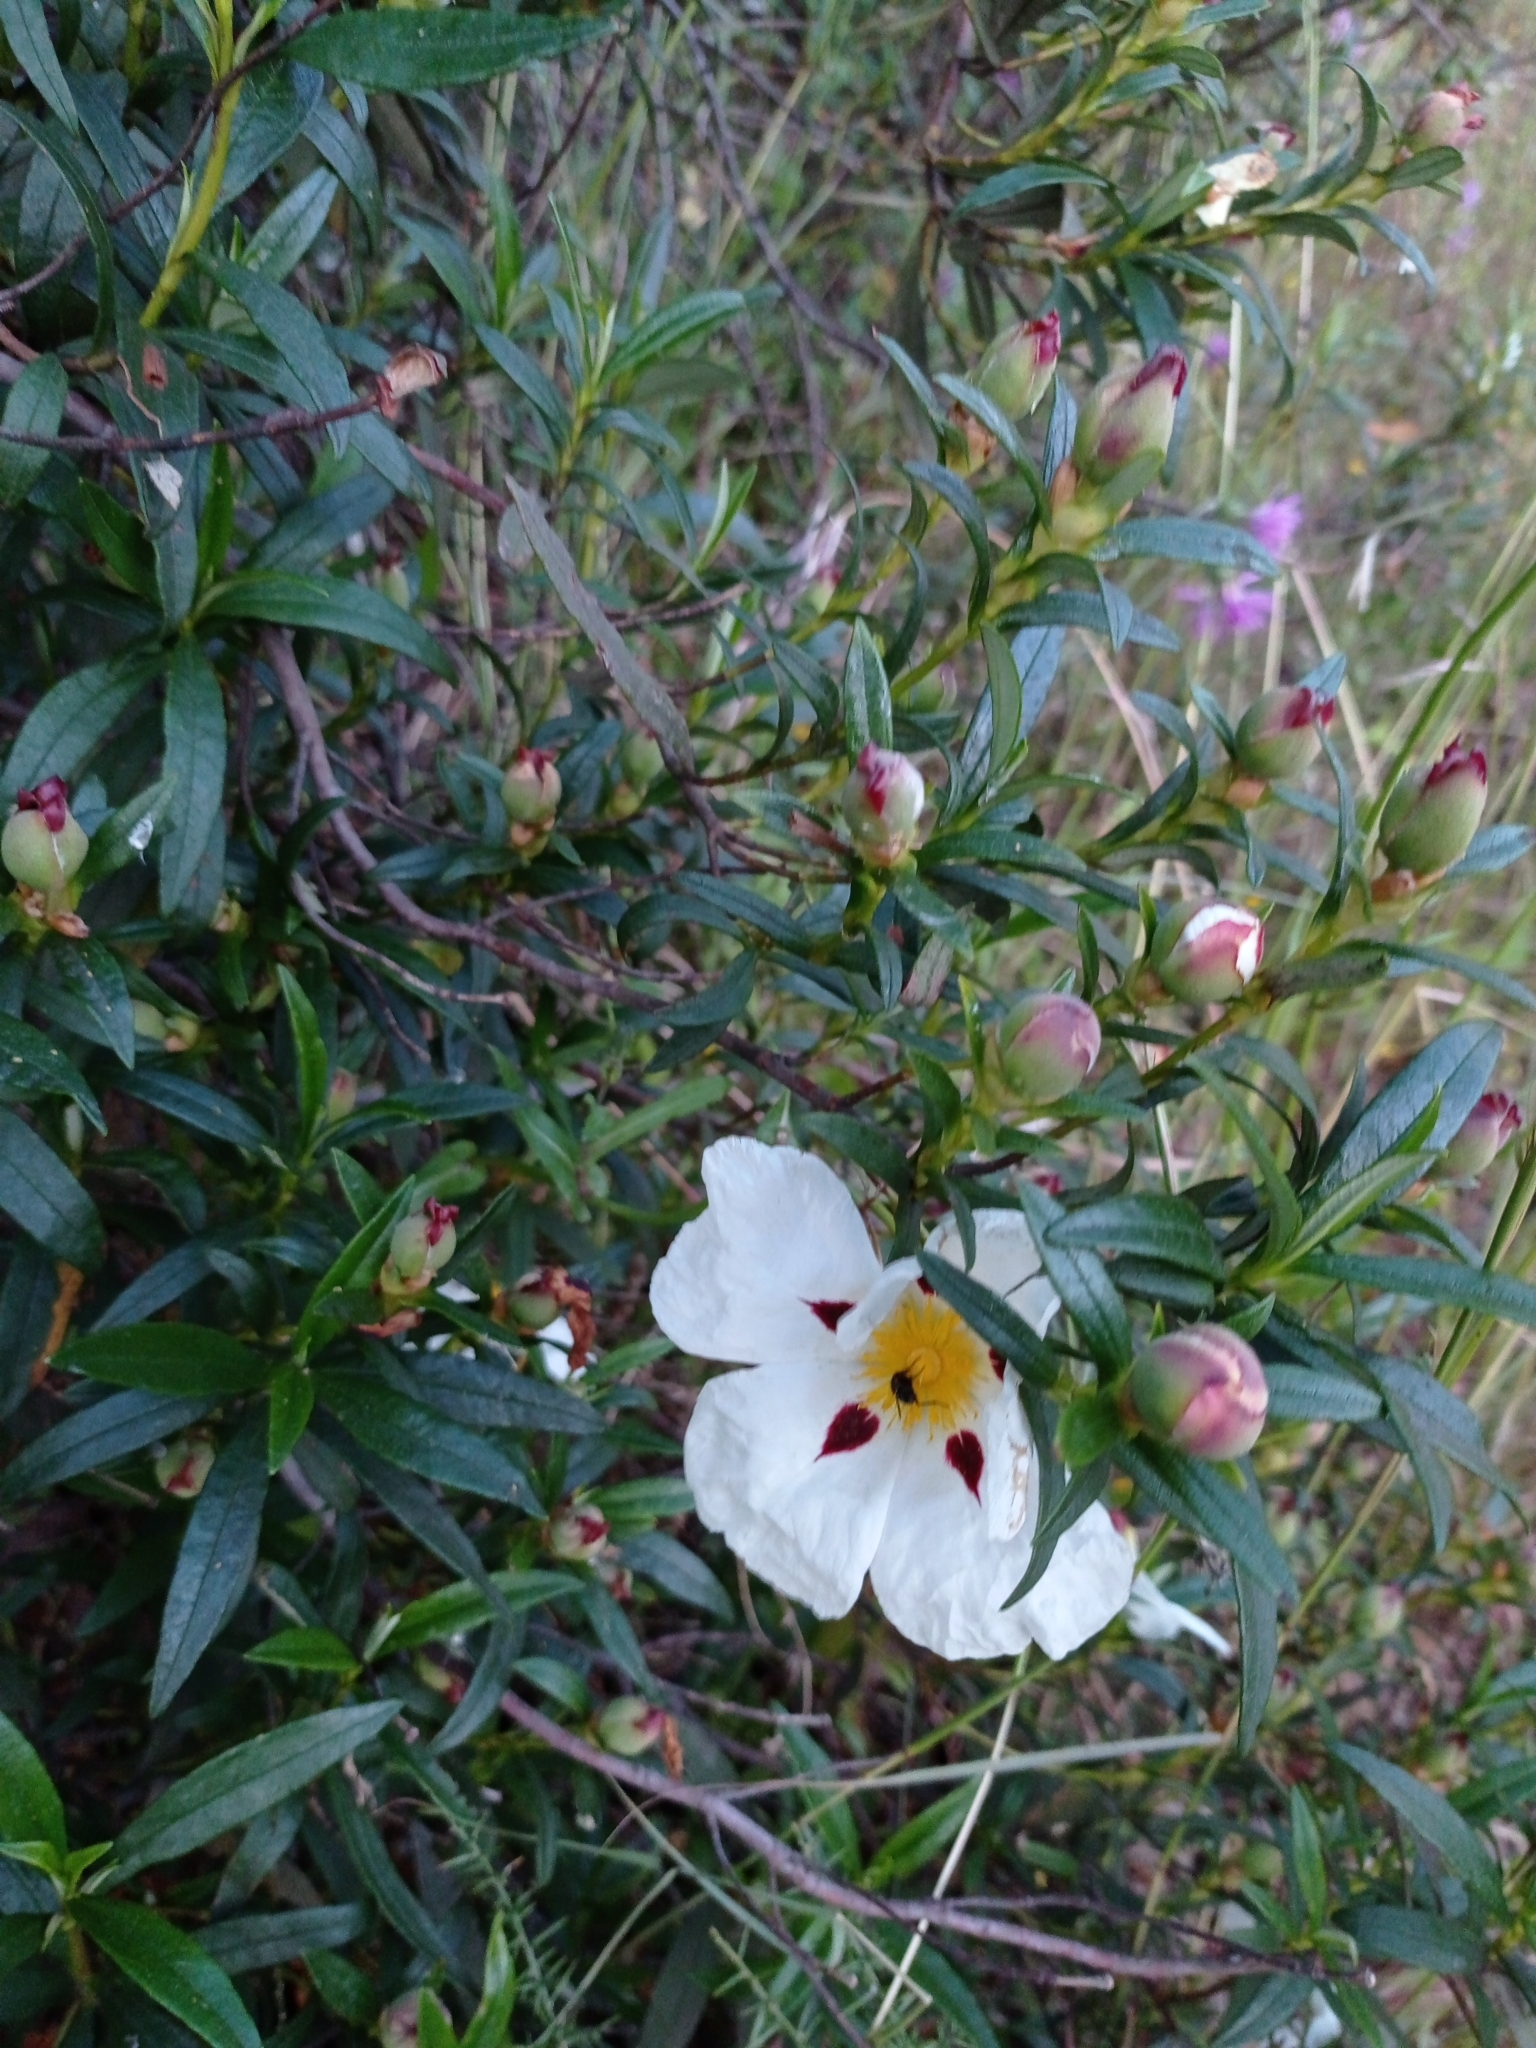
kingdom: Plantae
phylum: Tracheophyta
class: Magnoliopsida
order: Malvales
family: Cistaceae
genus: Cistus
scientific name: Cistus ladanifer
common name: Common gum cistus
